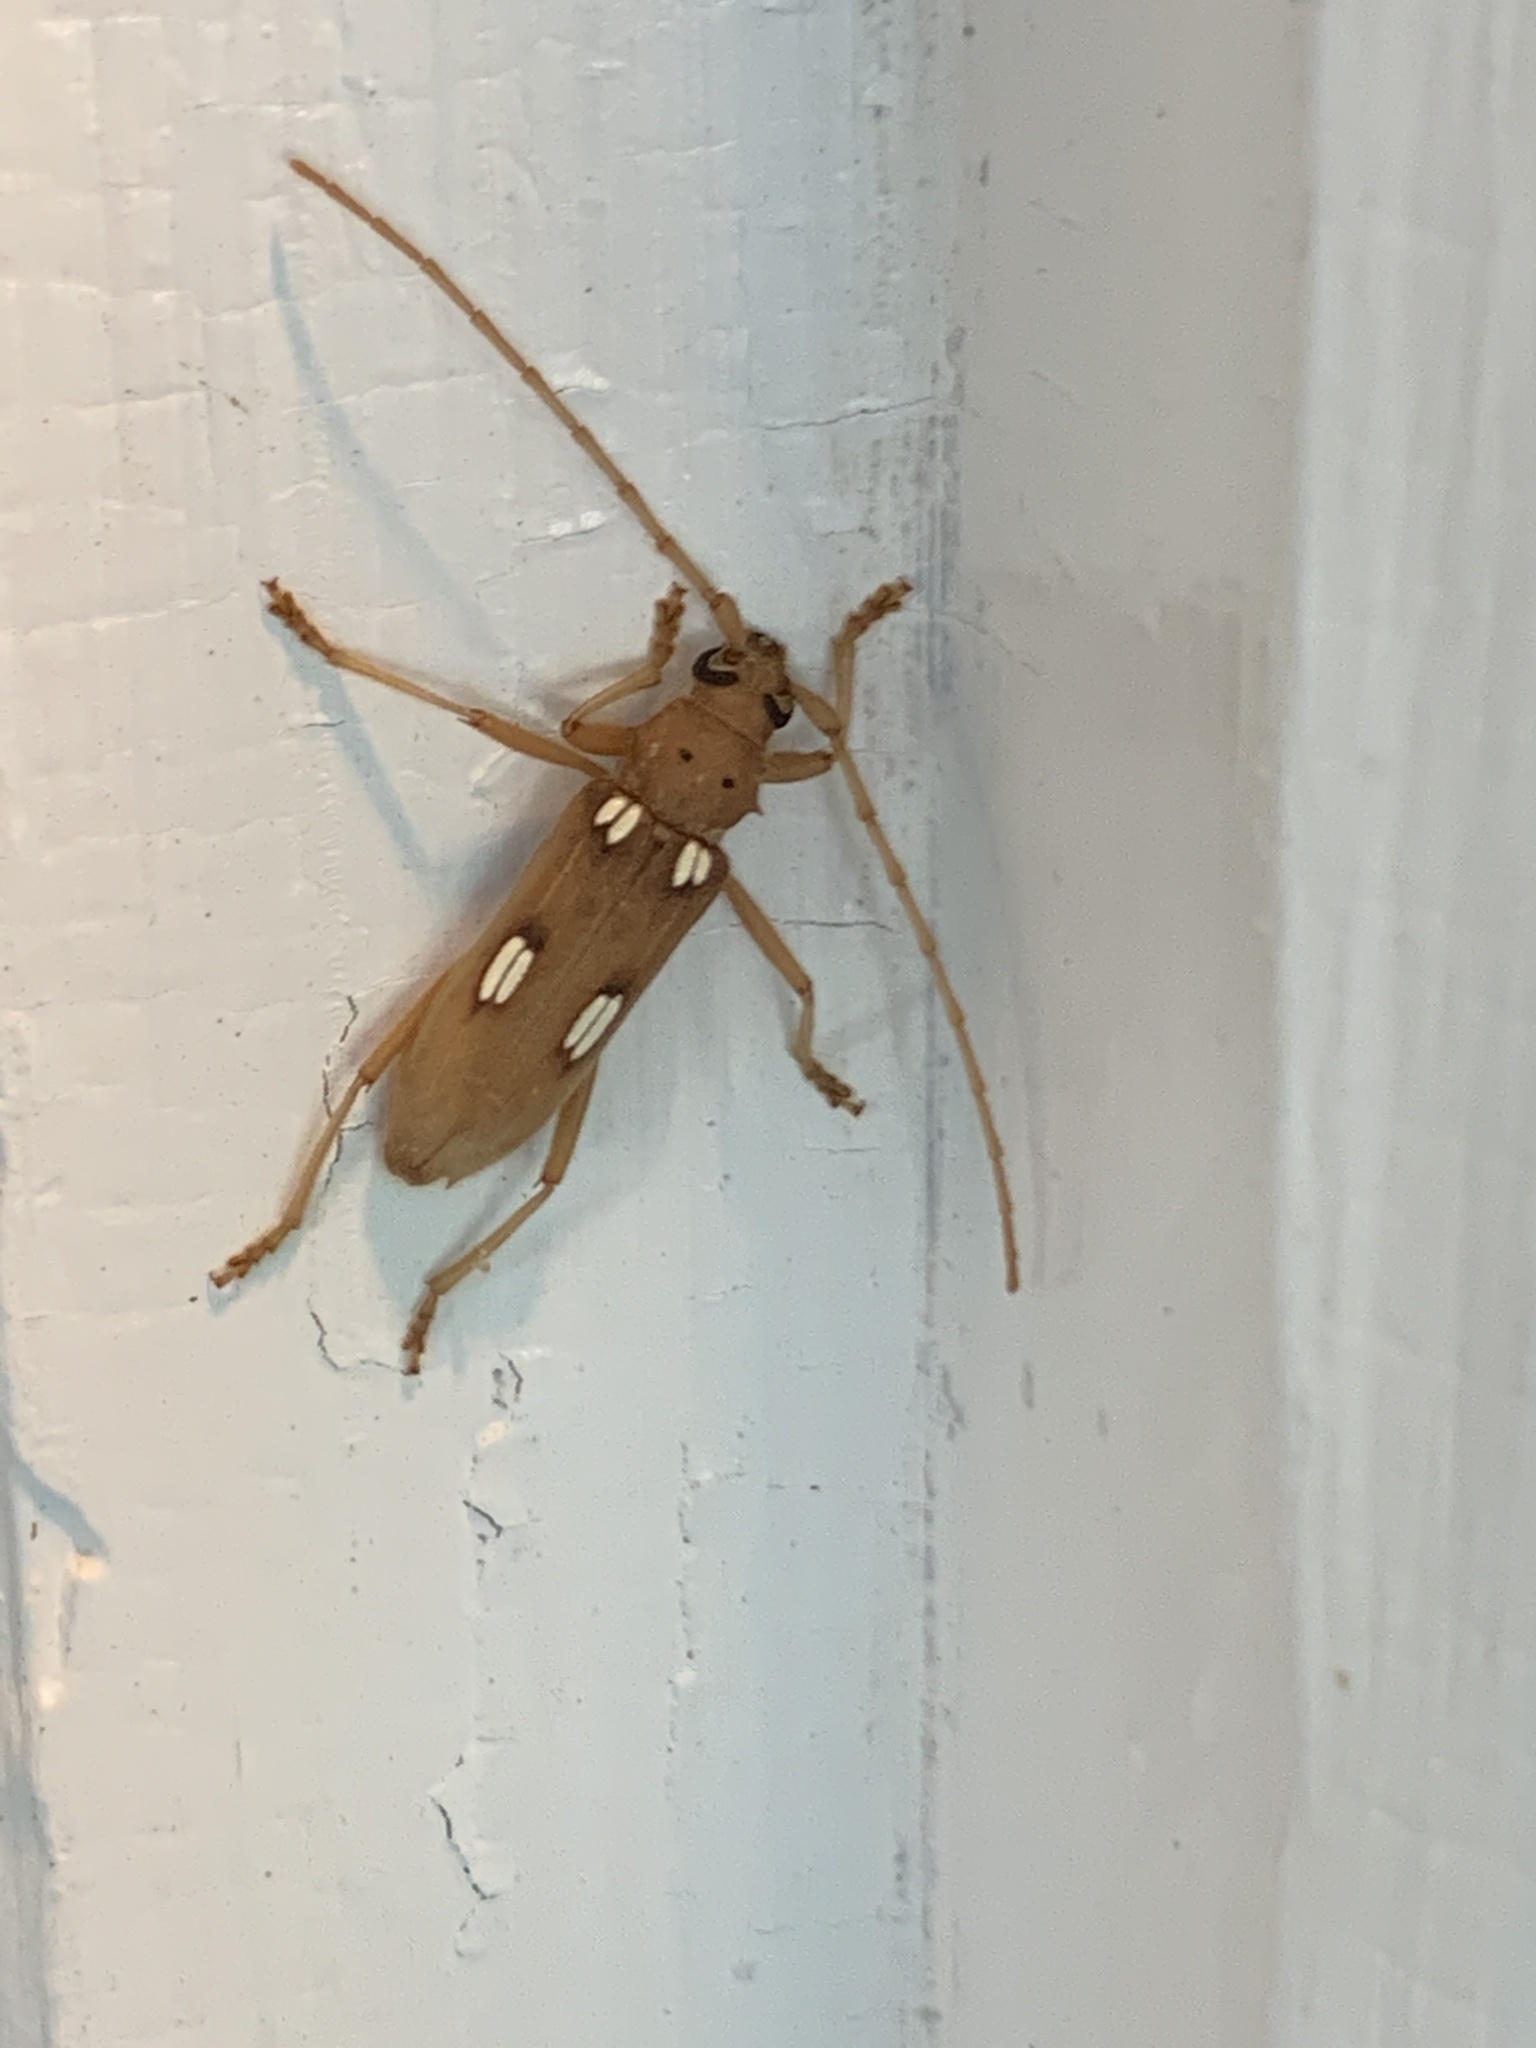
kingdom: Animalia
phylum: Arthropoda
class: Insecta
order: Coleoptera
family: Cerambycidae
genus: Eburia
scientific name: Eburia quadrigeminata
